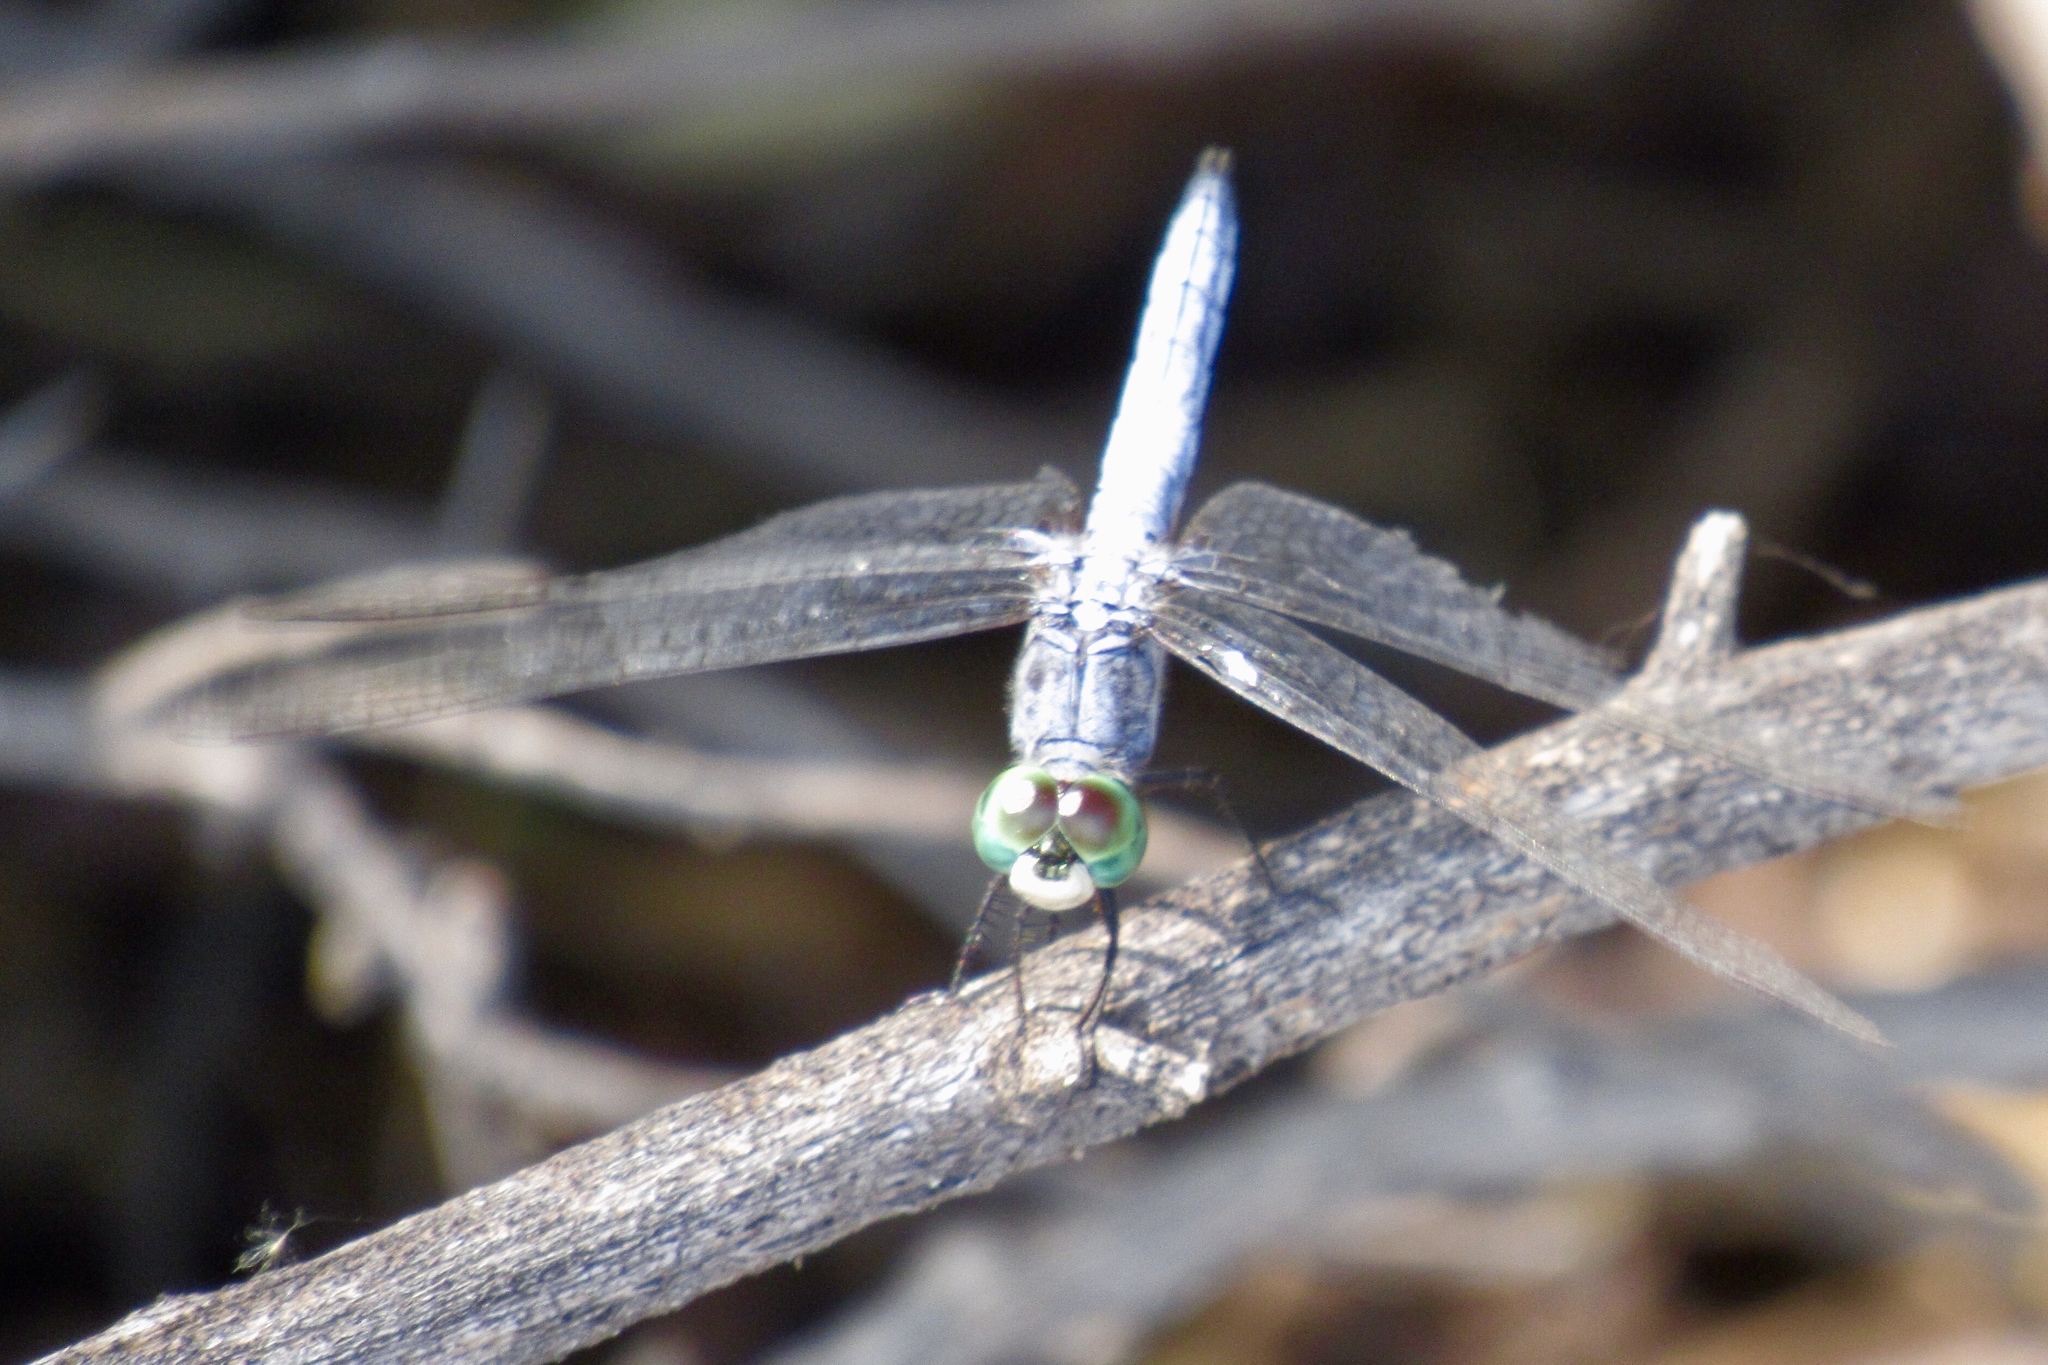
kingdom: Animalia
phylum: Arthropoda
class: Insecta
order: Odonata
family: Libellulidae
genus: Pachydiplax
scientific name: Pachydiplax longipennis
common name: Blue dasher
